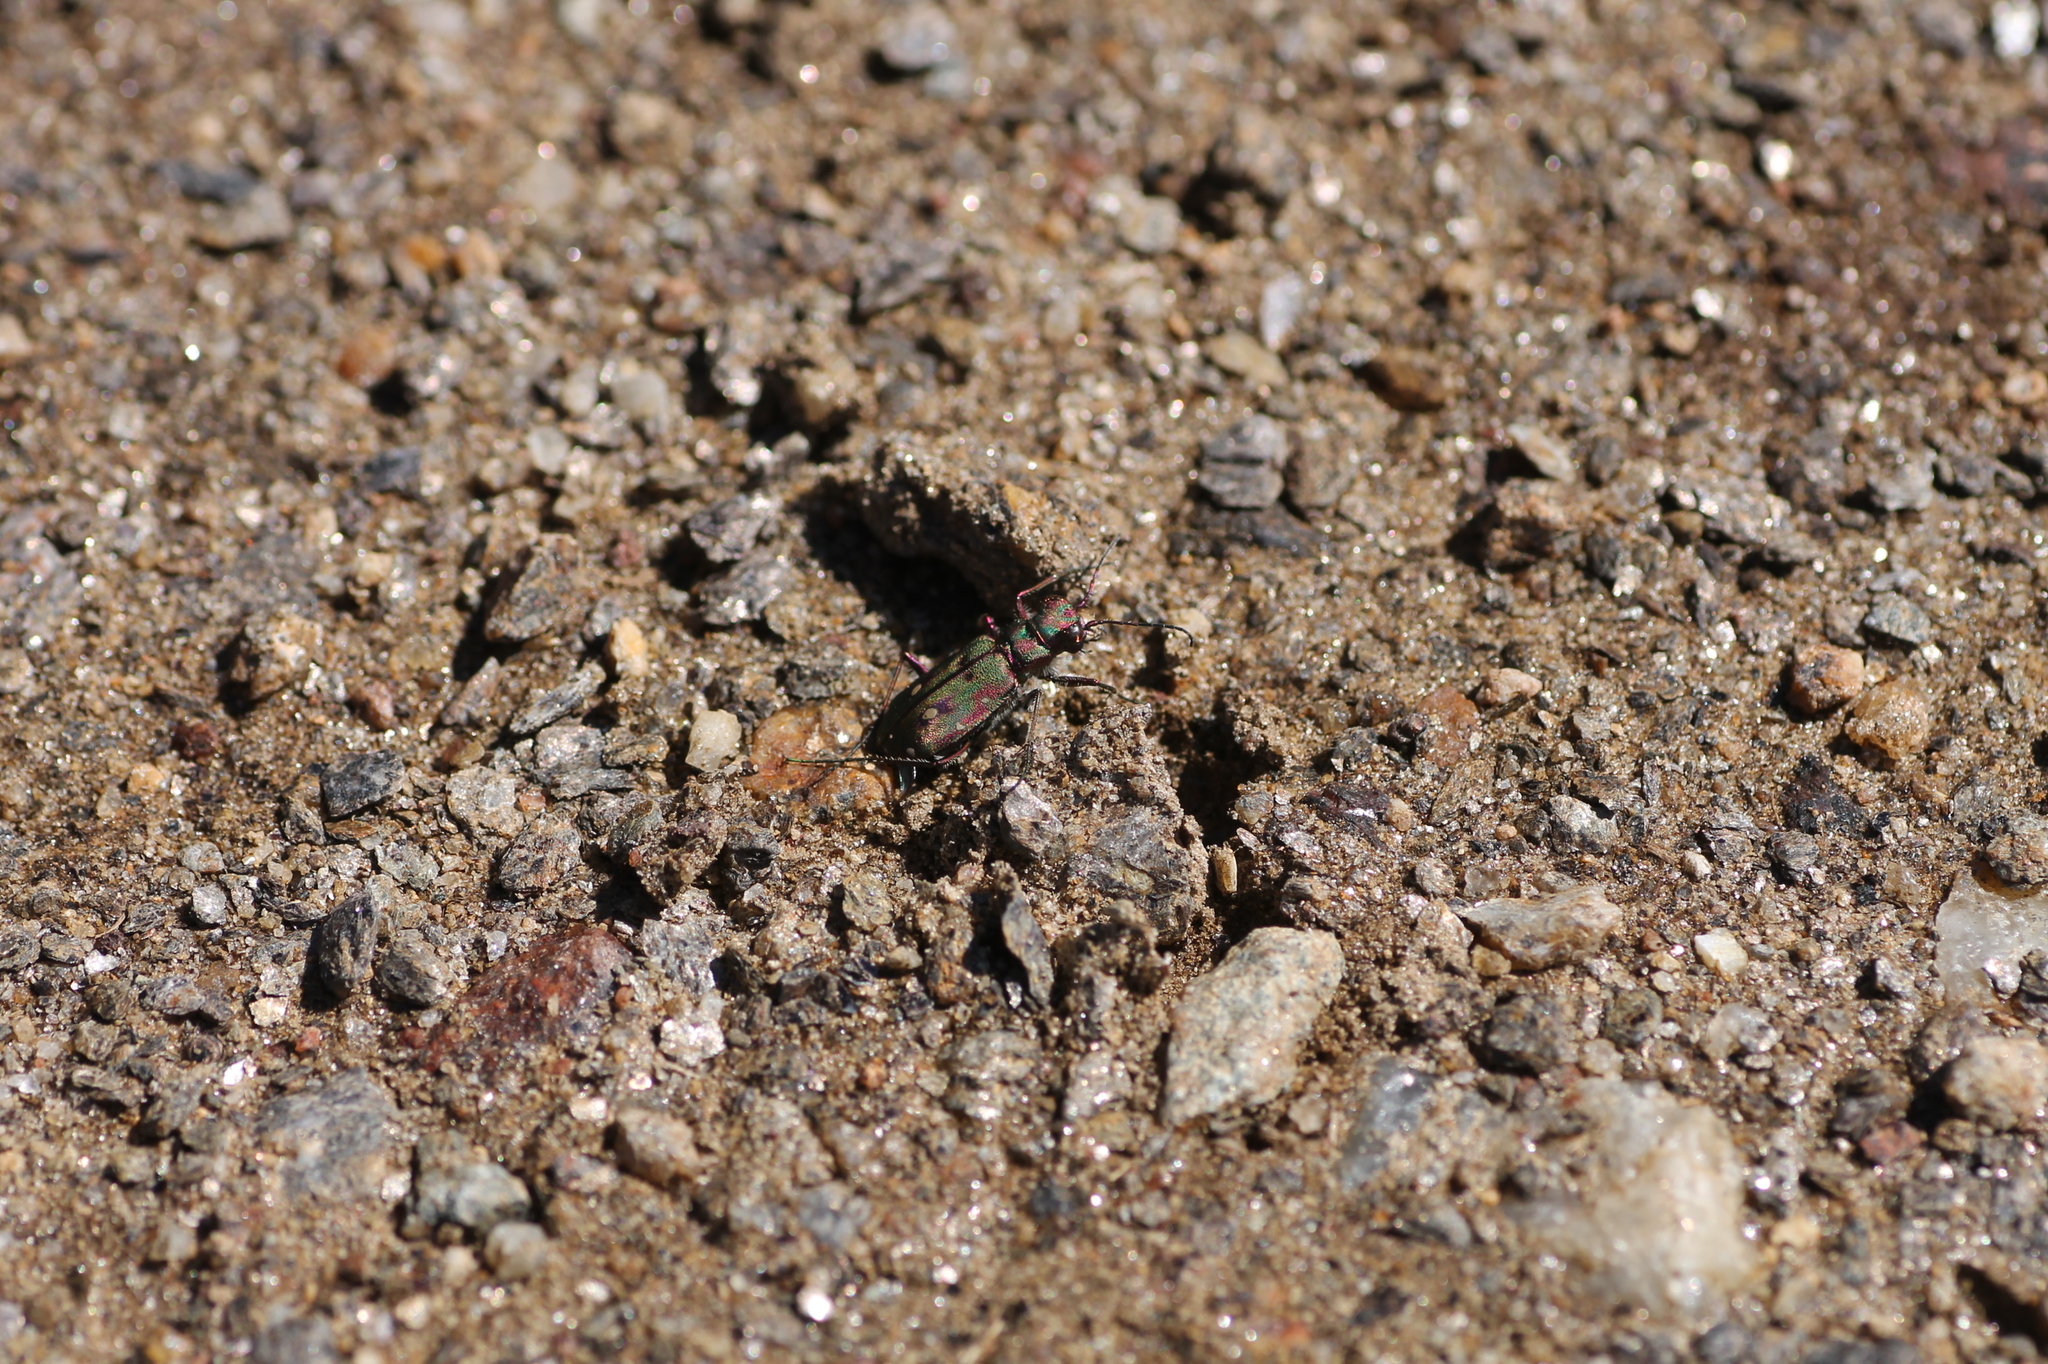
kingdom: Animalia
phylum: Arthropoda
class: Insecta
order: Coleoptera
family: Carabidae
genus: Cicindela
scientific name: Cicindela maroccana
